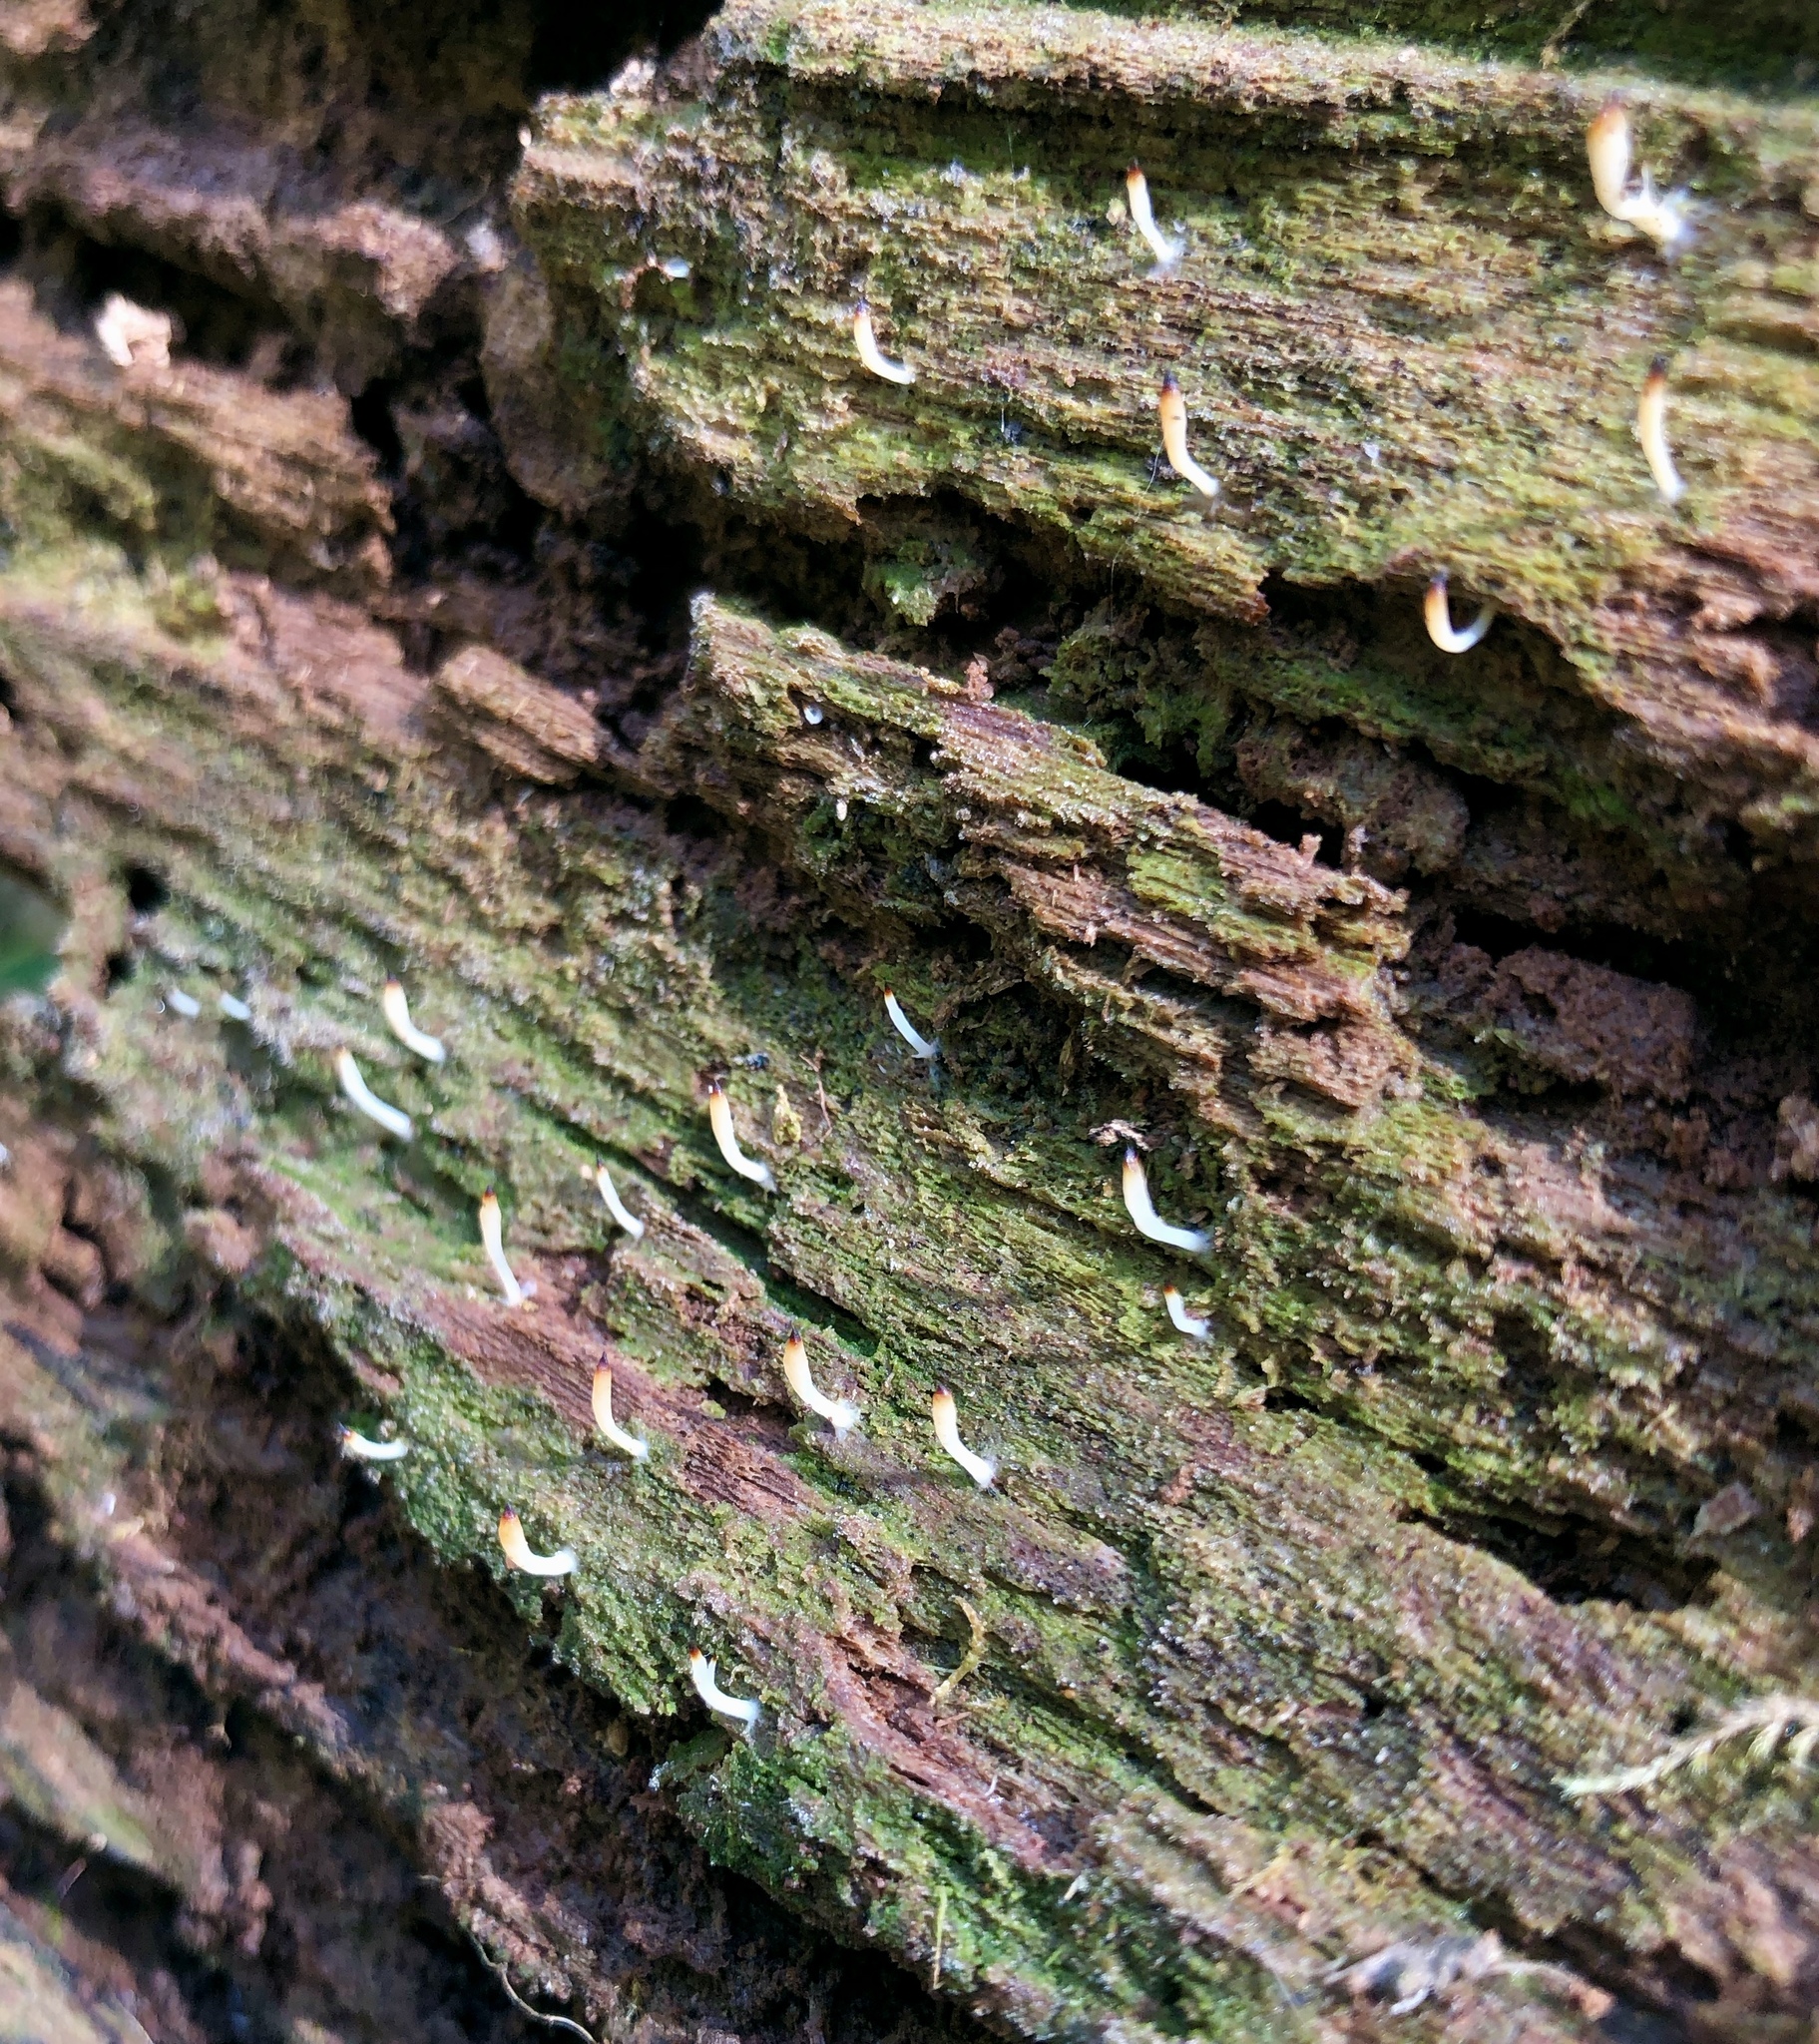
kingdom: Fungi
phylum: Basidiomycota
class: Agaricomycetes
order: Cantharellales
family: Hydnaceae
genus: Multiclavula
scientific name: Multiclavula mucida
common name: White green-algae coral
